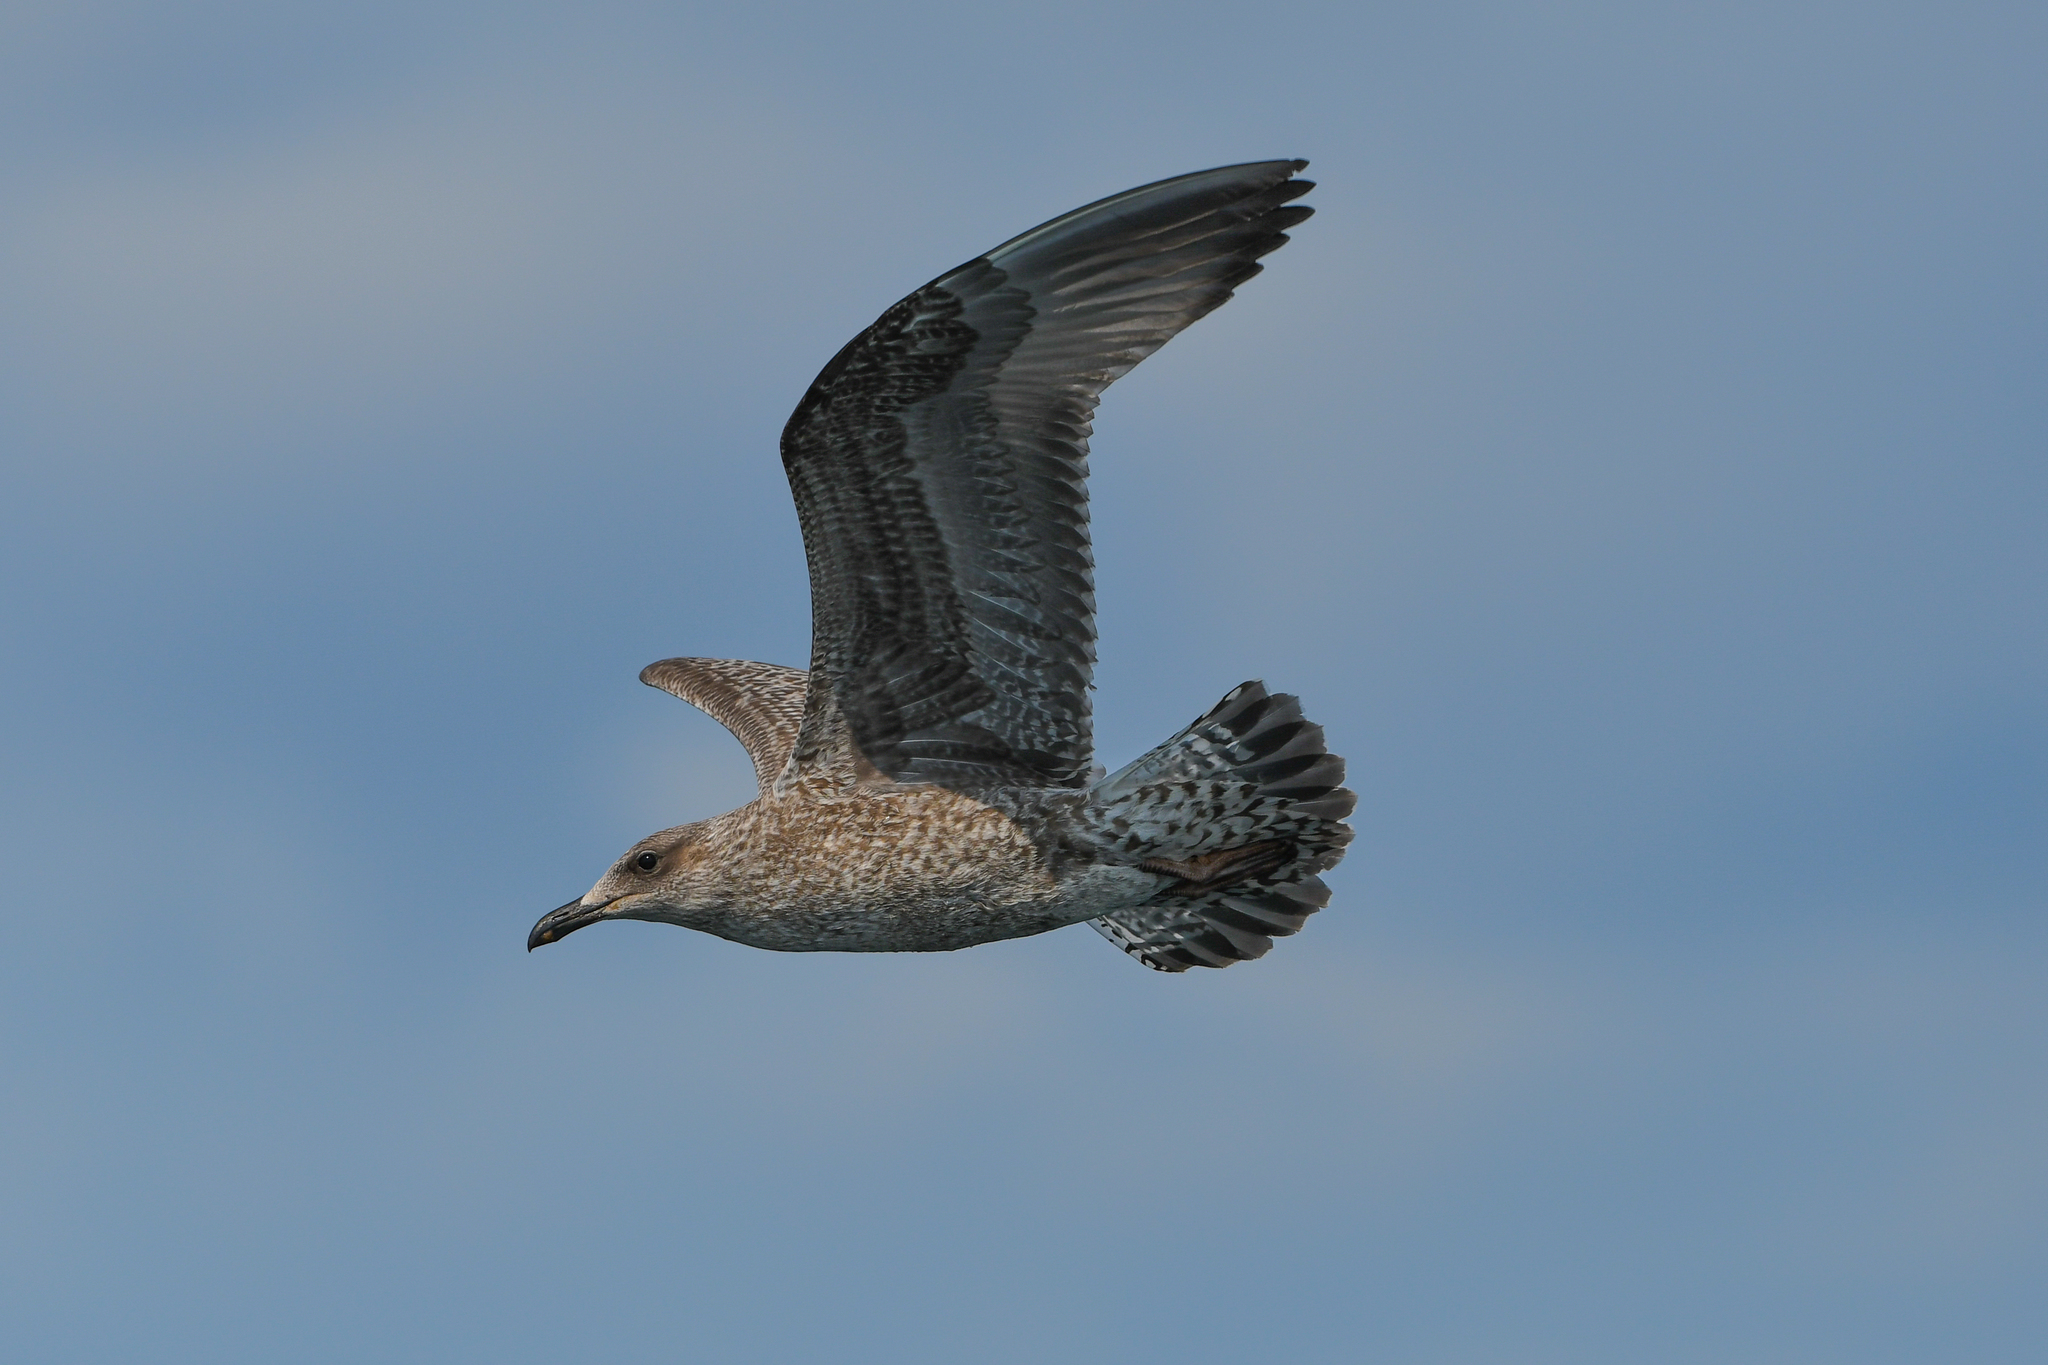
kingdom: Animalia
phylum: Chordata
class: Aves
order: Charadriiformes
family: Laridae
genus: Larus
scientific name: Larus argentatus
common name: Herring gull
